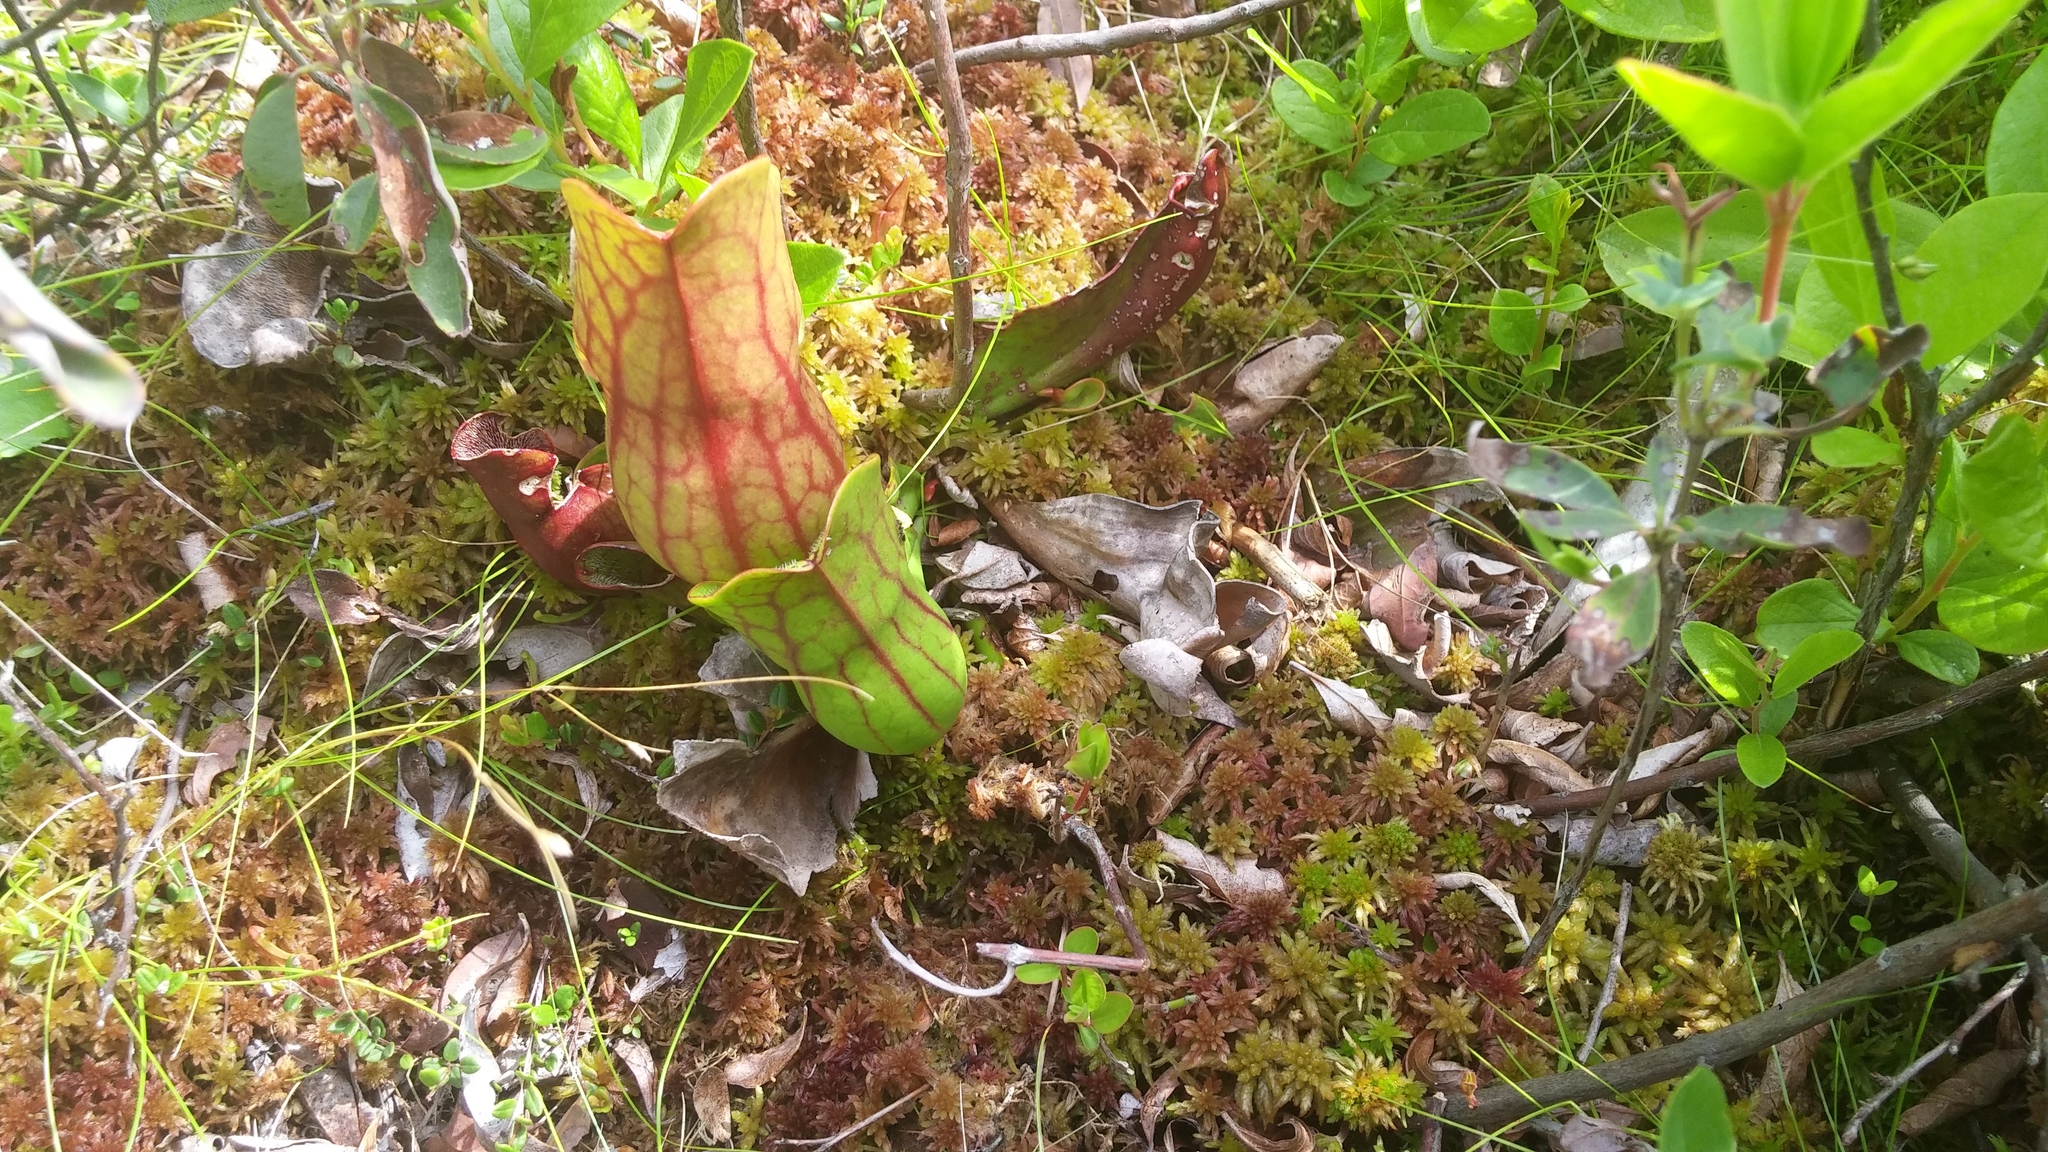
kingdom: Plantae
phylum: Tracheophyta
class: Magnoliopsida
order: Ericales
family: Sarraceniaceae
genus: Sarracenia
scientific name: Sarracenia purpurea
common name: Pitcherplant
